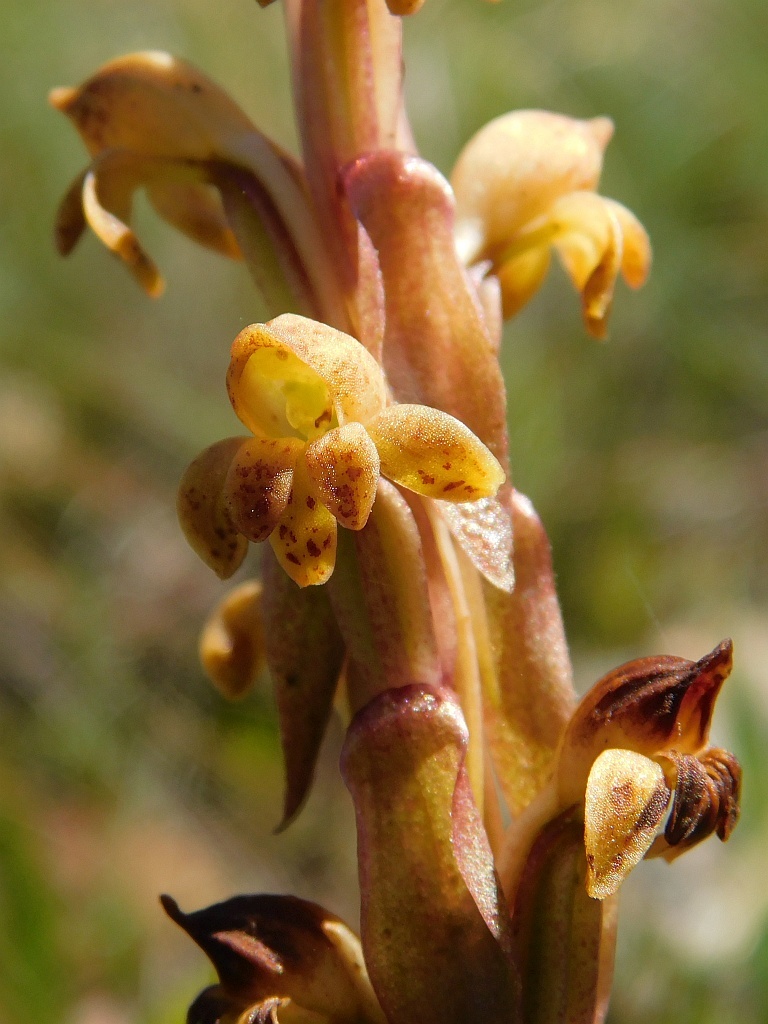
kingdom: Plantae
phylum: Tracheophyta
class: Liliopsida
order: Asparagales
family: Orchidaceae
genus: Satyrium
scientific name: Satyrium bicorne
